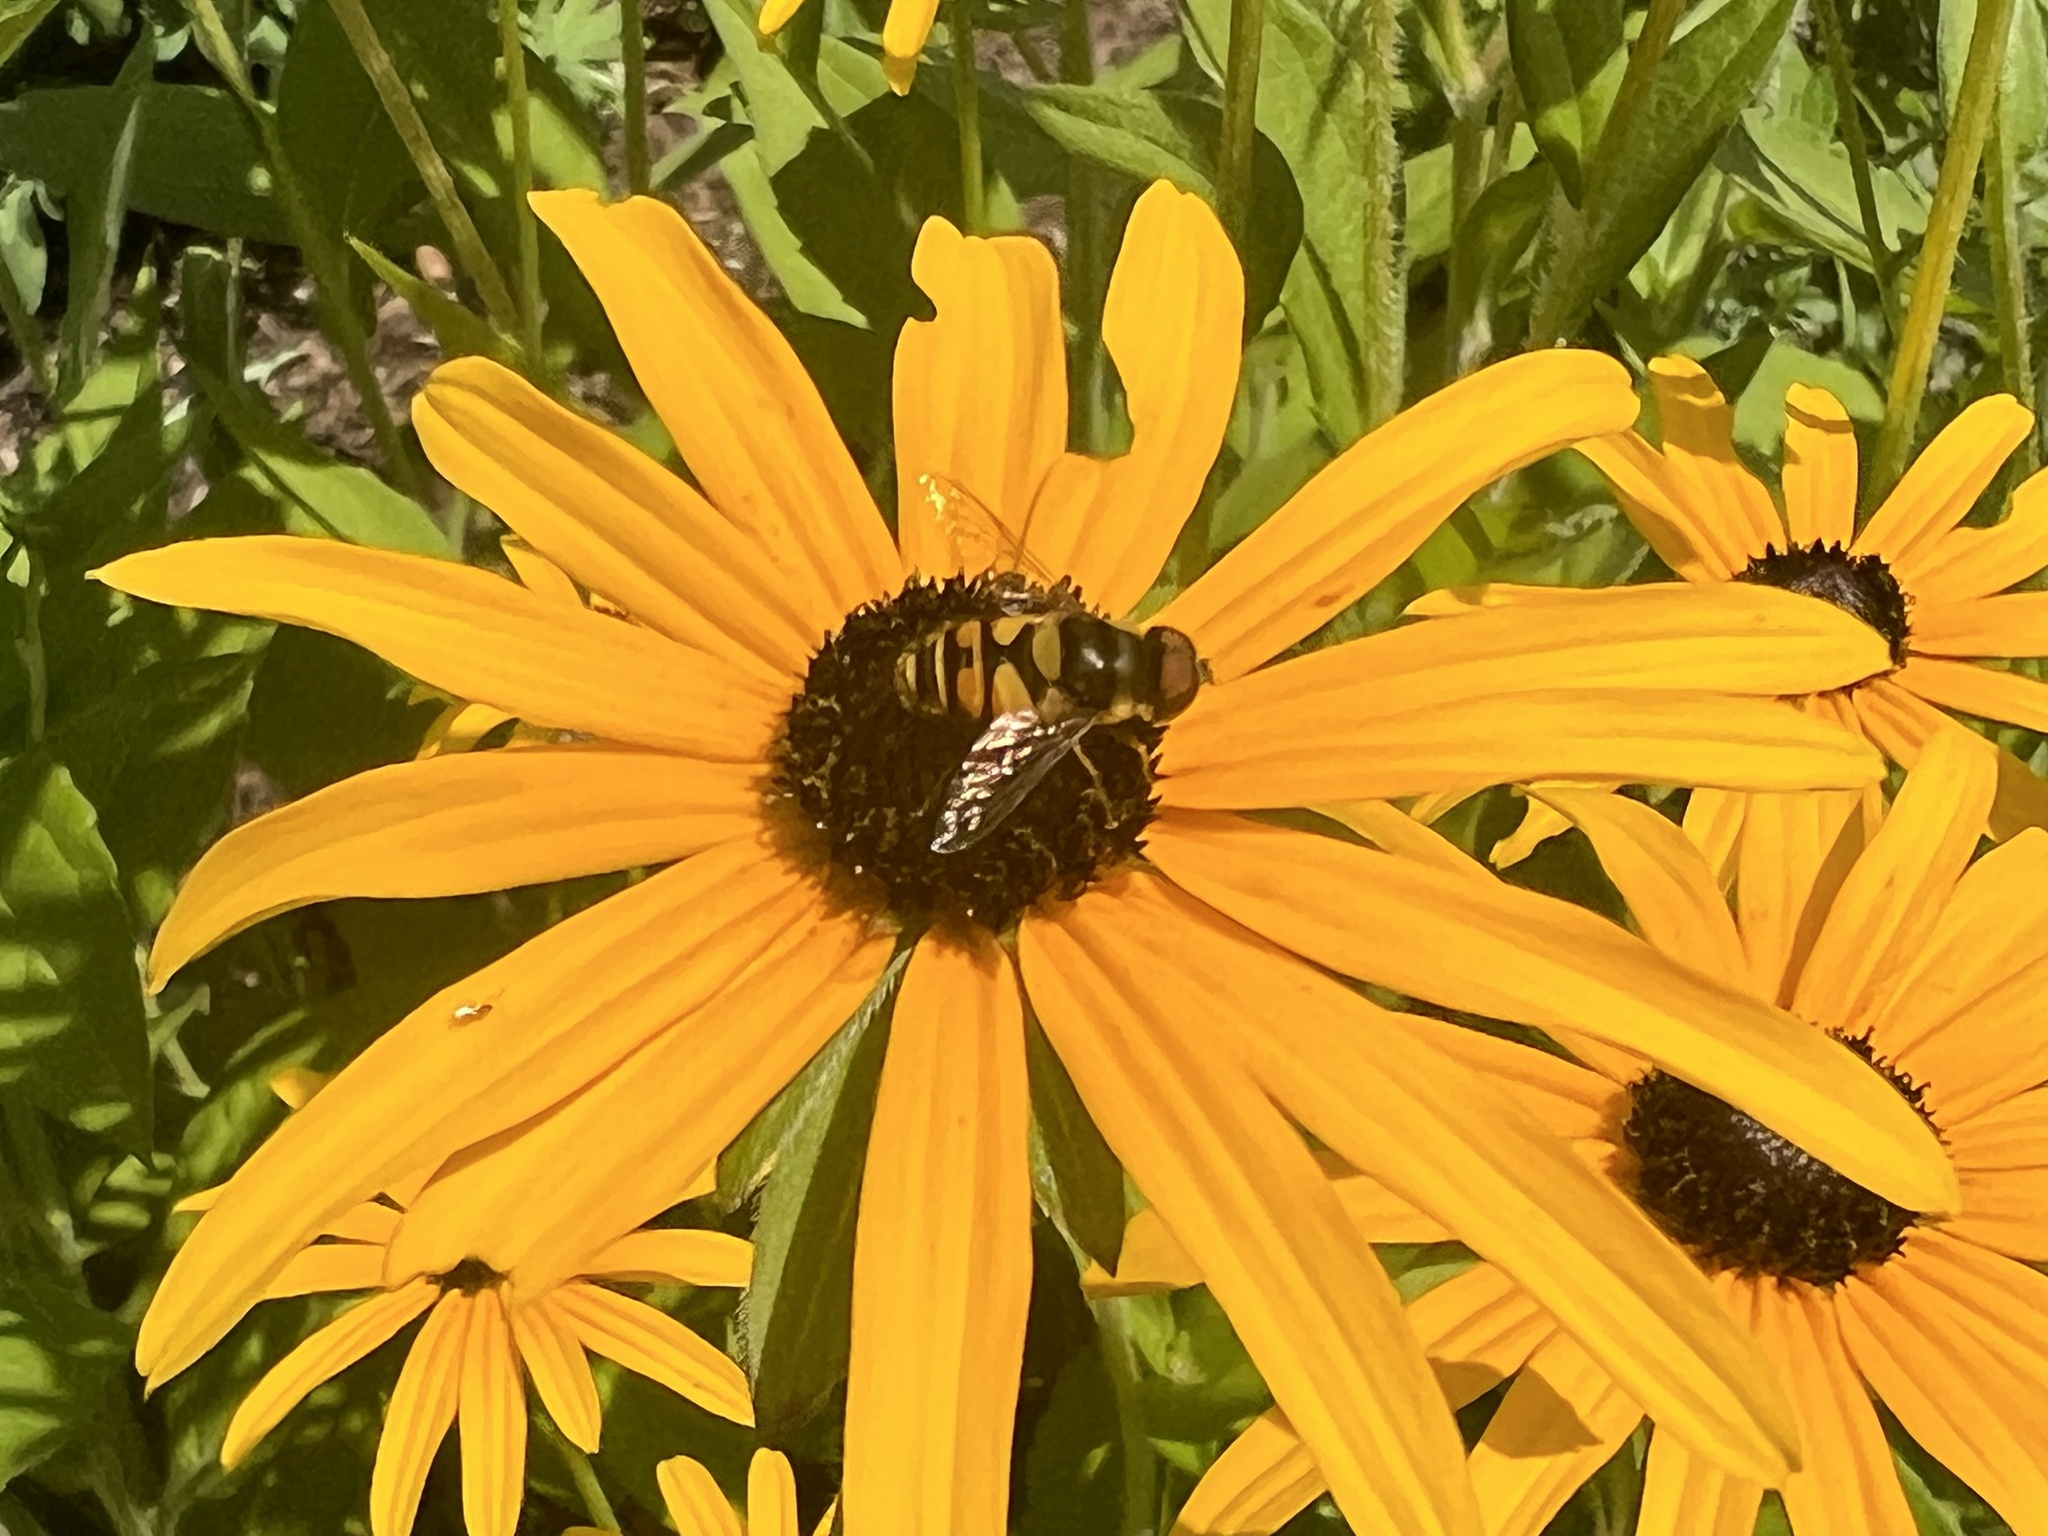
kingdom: Animalia
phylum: Arthropoda
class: Insecta
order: Diptera
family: Syrphidae
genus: Eristalis
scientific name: Eristalis transversa
